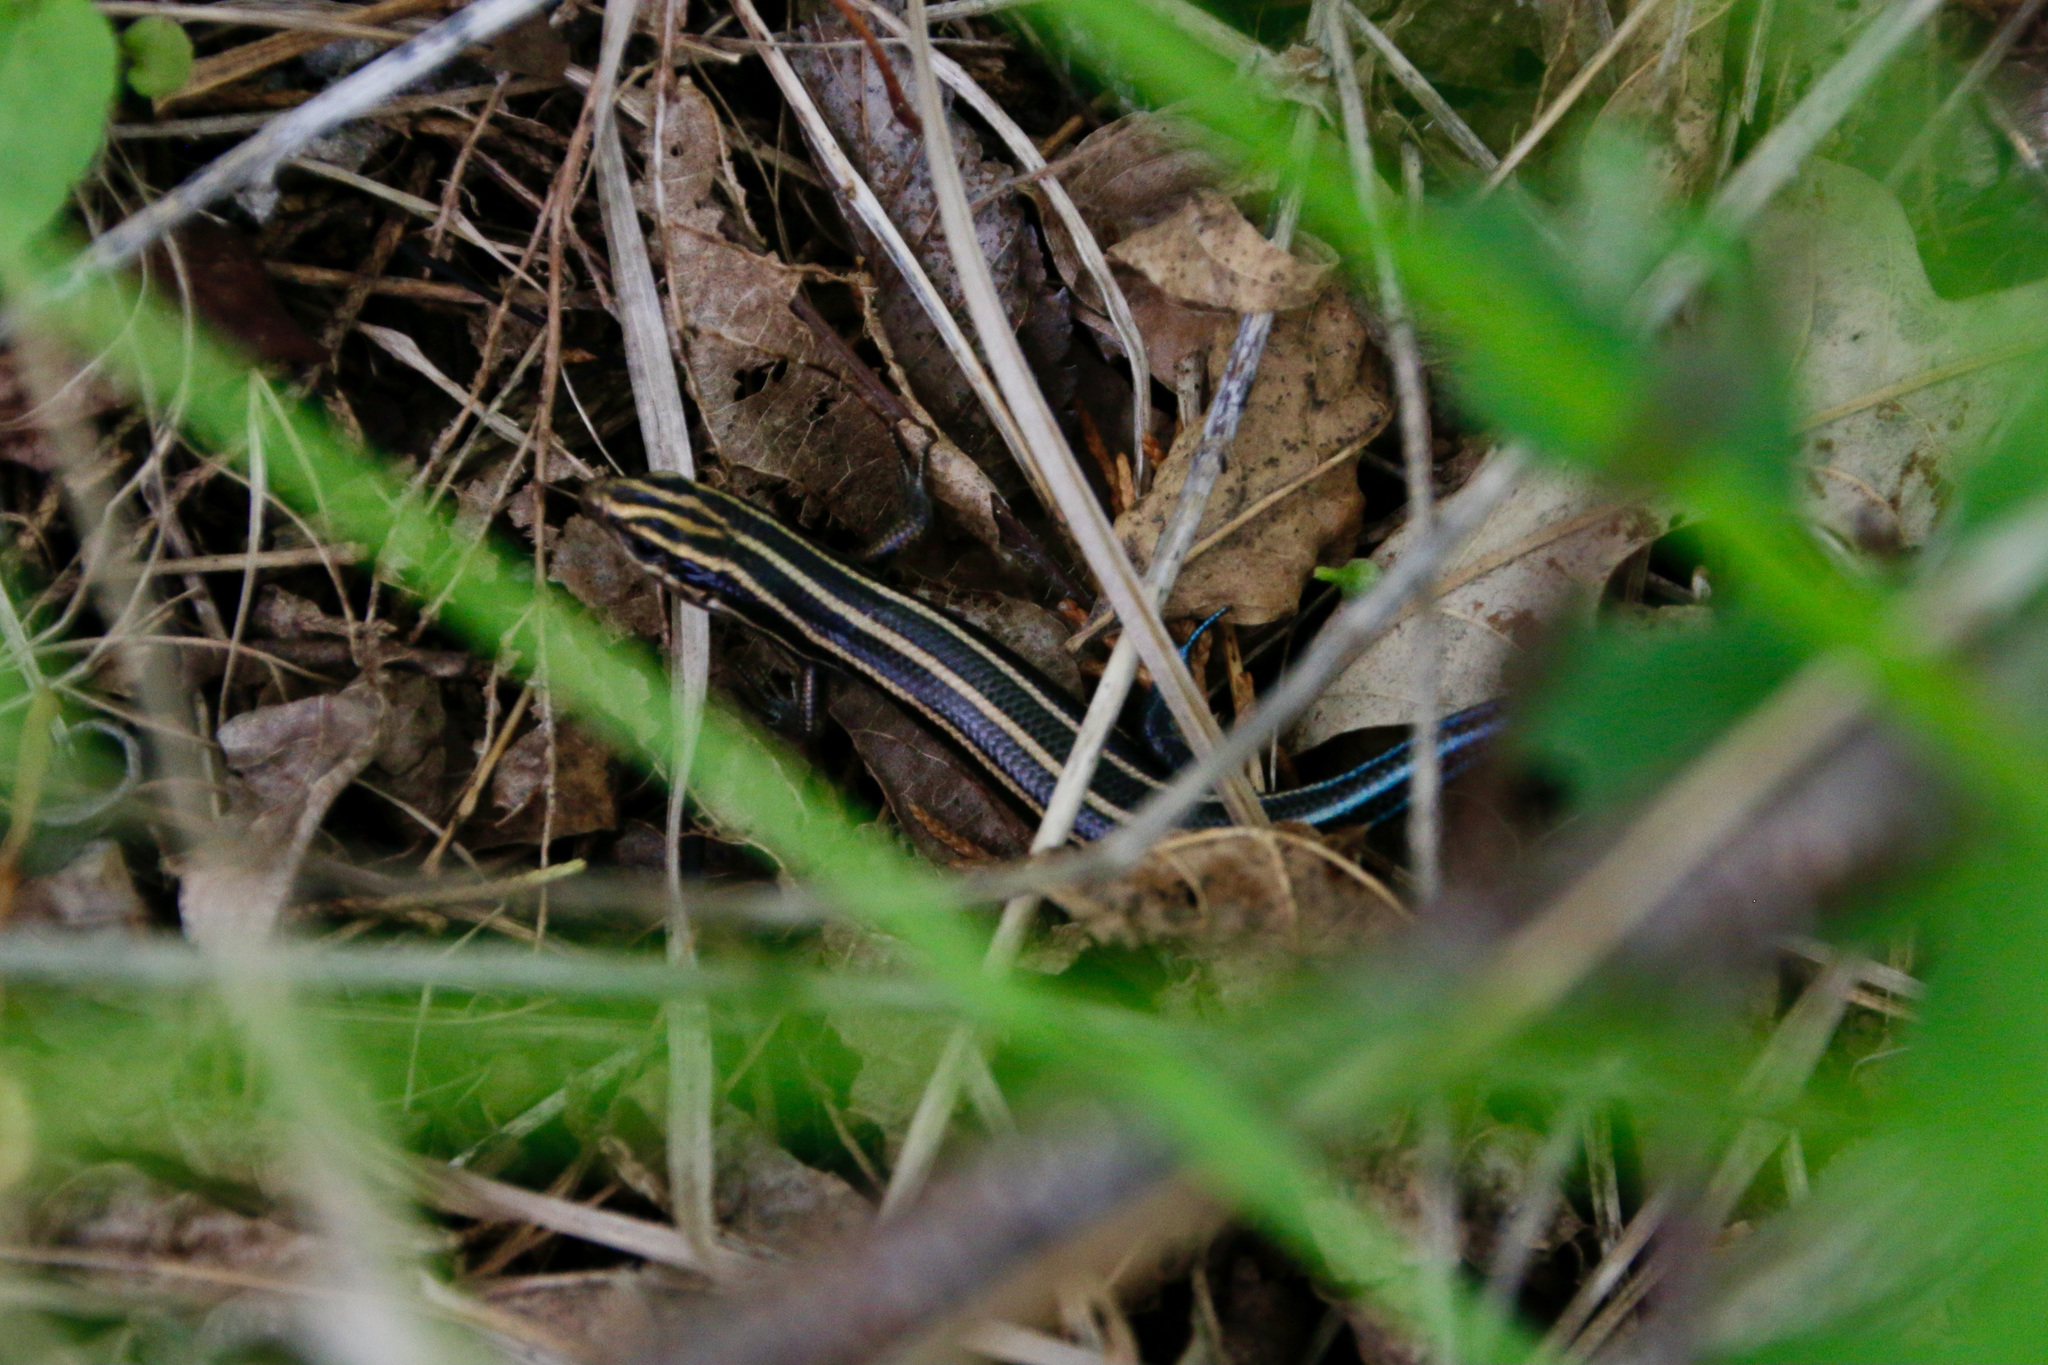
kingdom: Animalia
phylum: Chordata
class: Squamata
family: Scincidae
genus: Plestiodon
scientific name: Plestiodon fasciatus
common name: Five-lined skink
